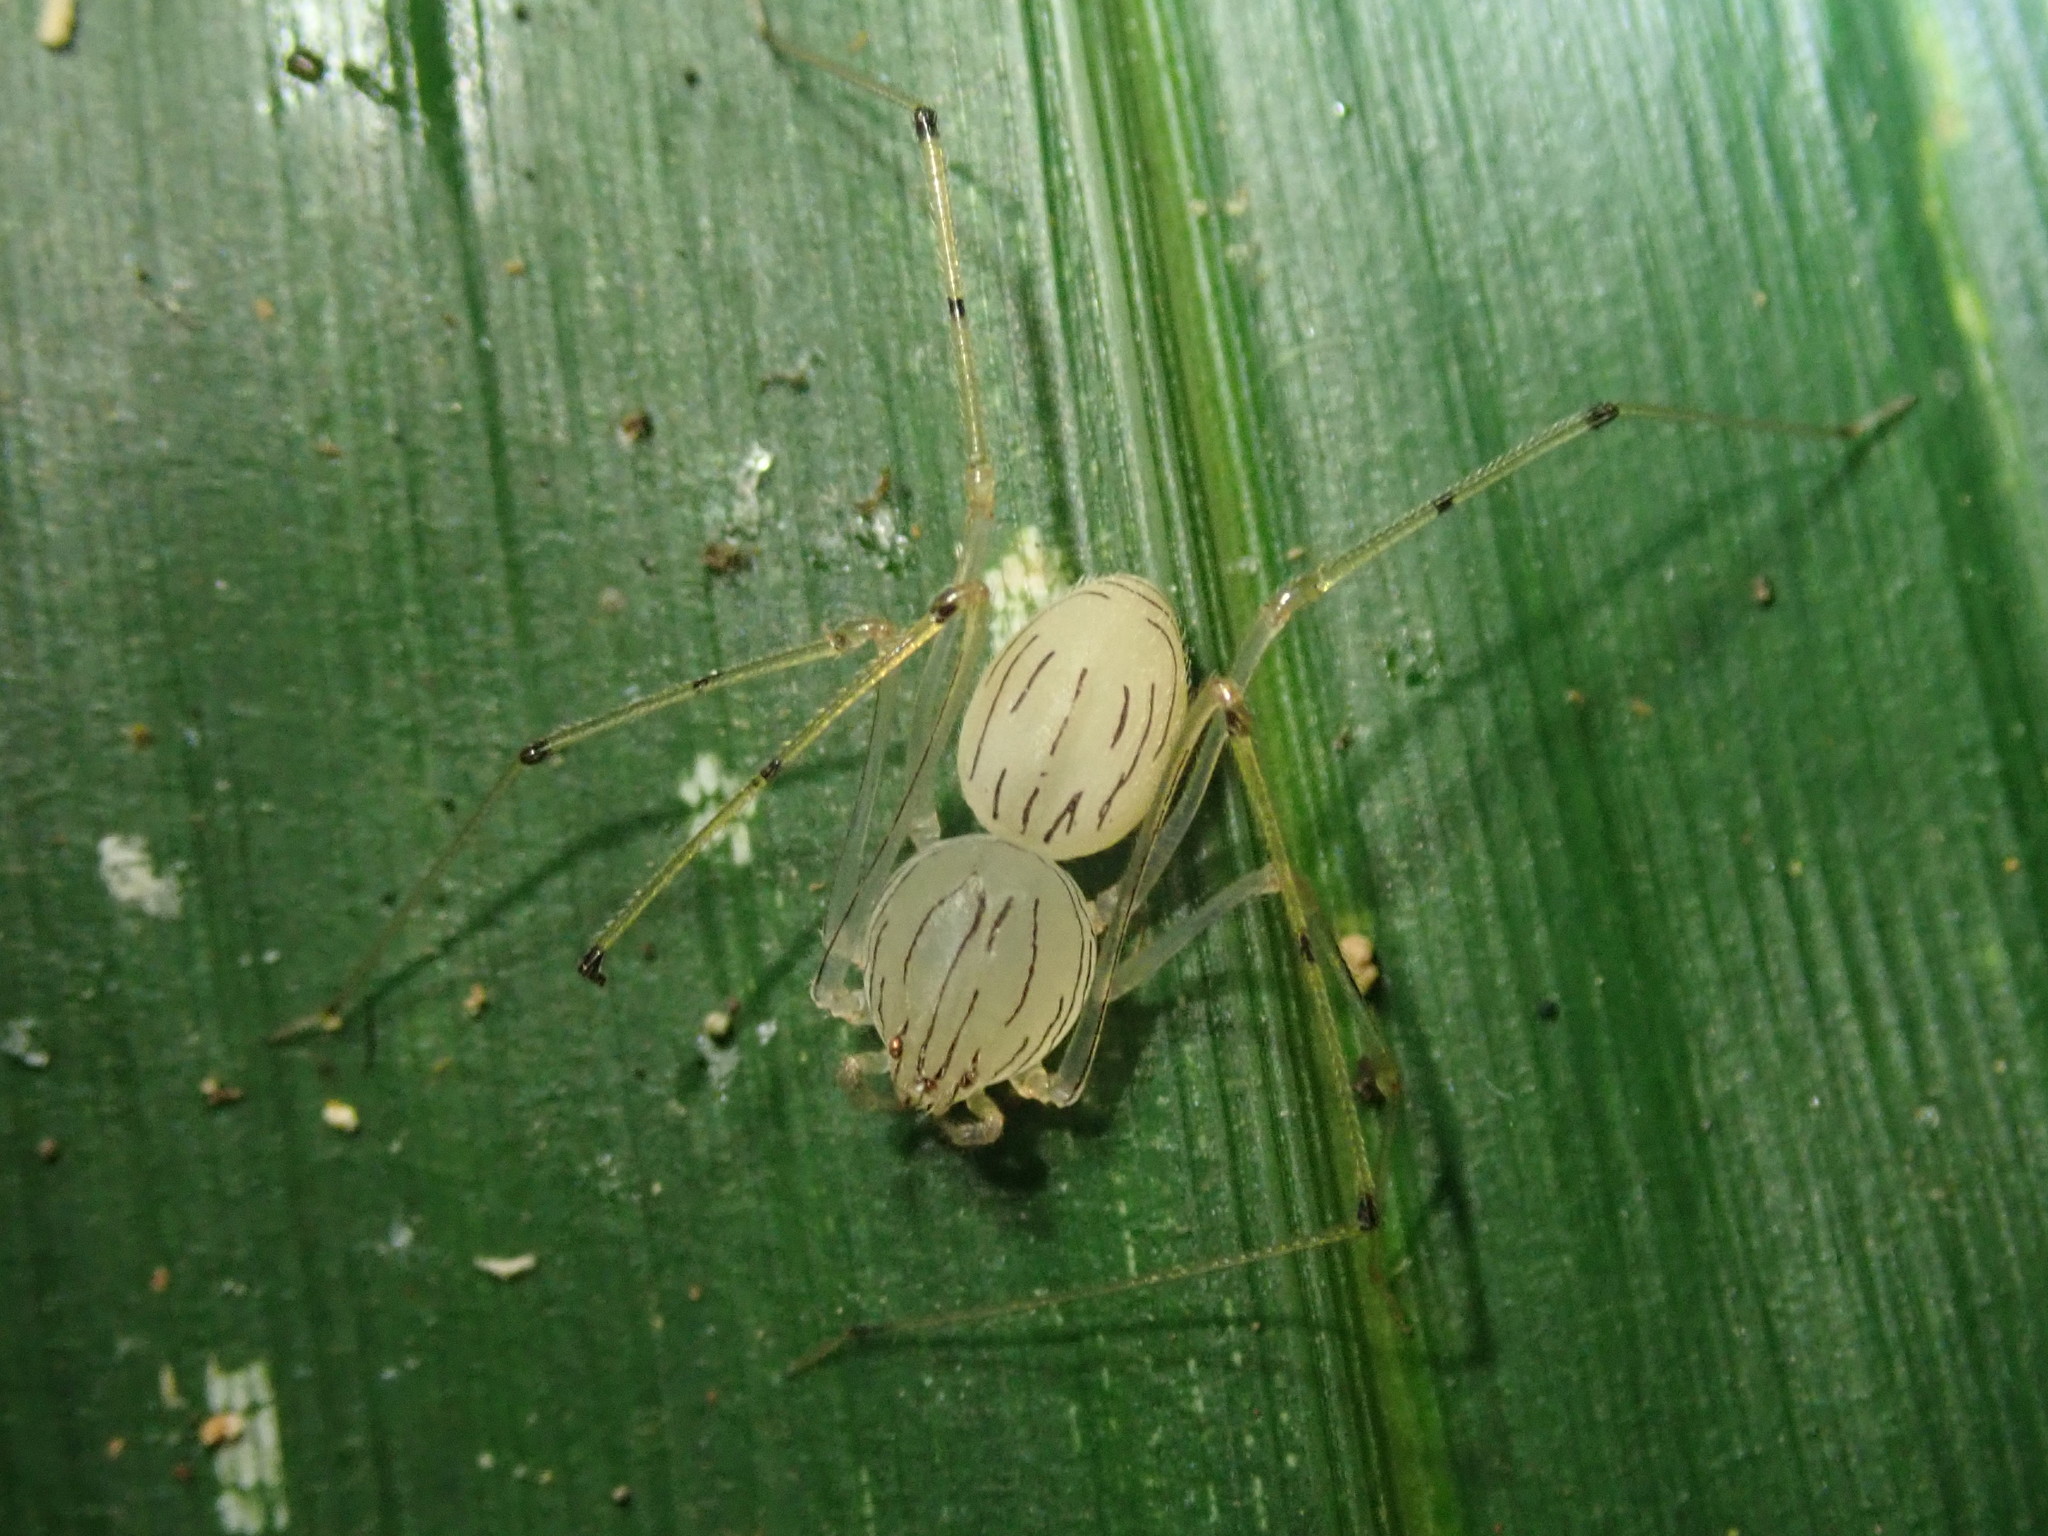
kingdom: Animalia
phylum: Arthropoda
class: Arachnida
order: Araneae
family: Scytodidae
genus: Scytodes
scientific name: Scytodes pallida
